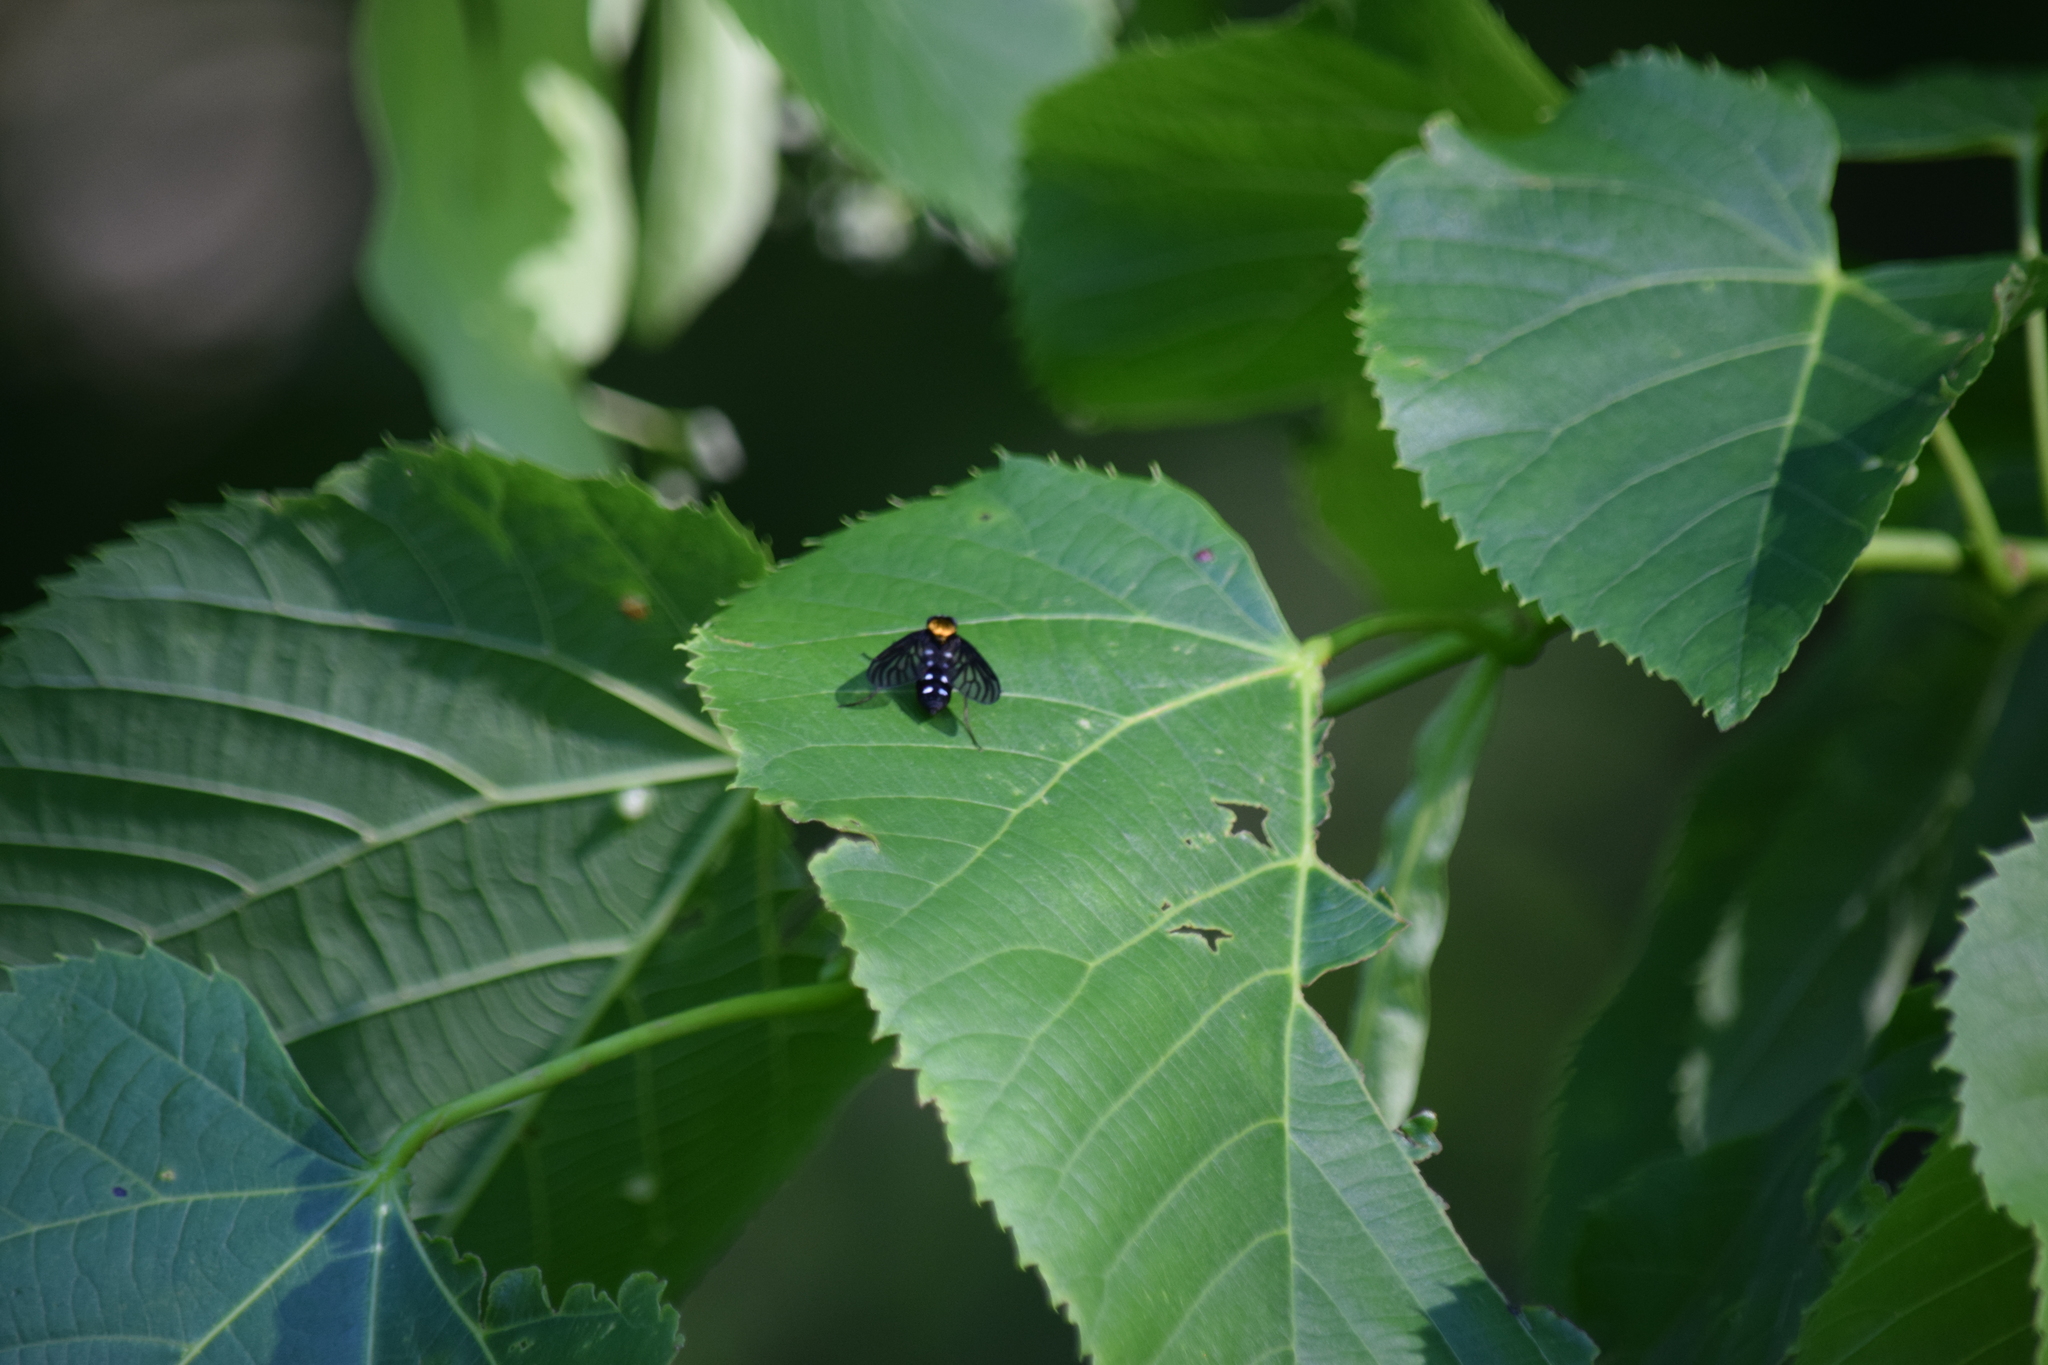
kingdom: Animalia
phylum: Arthropoda
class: Insecta
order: Diptera
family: Rhagionidae
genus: Chrysopilus
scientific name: Chrysopilus thoracicus
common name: Golden-backed snipe fly
